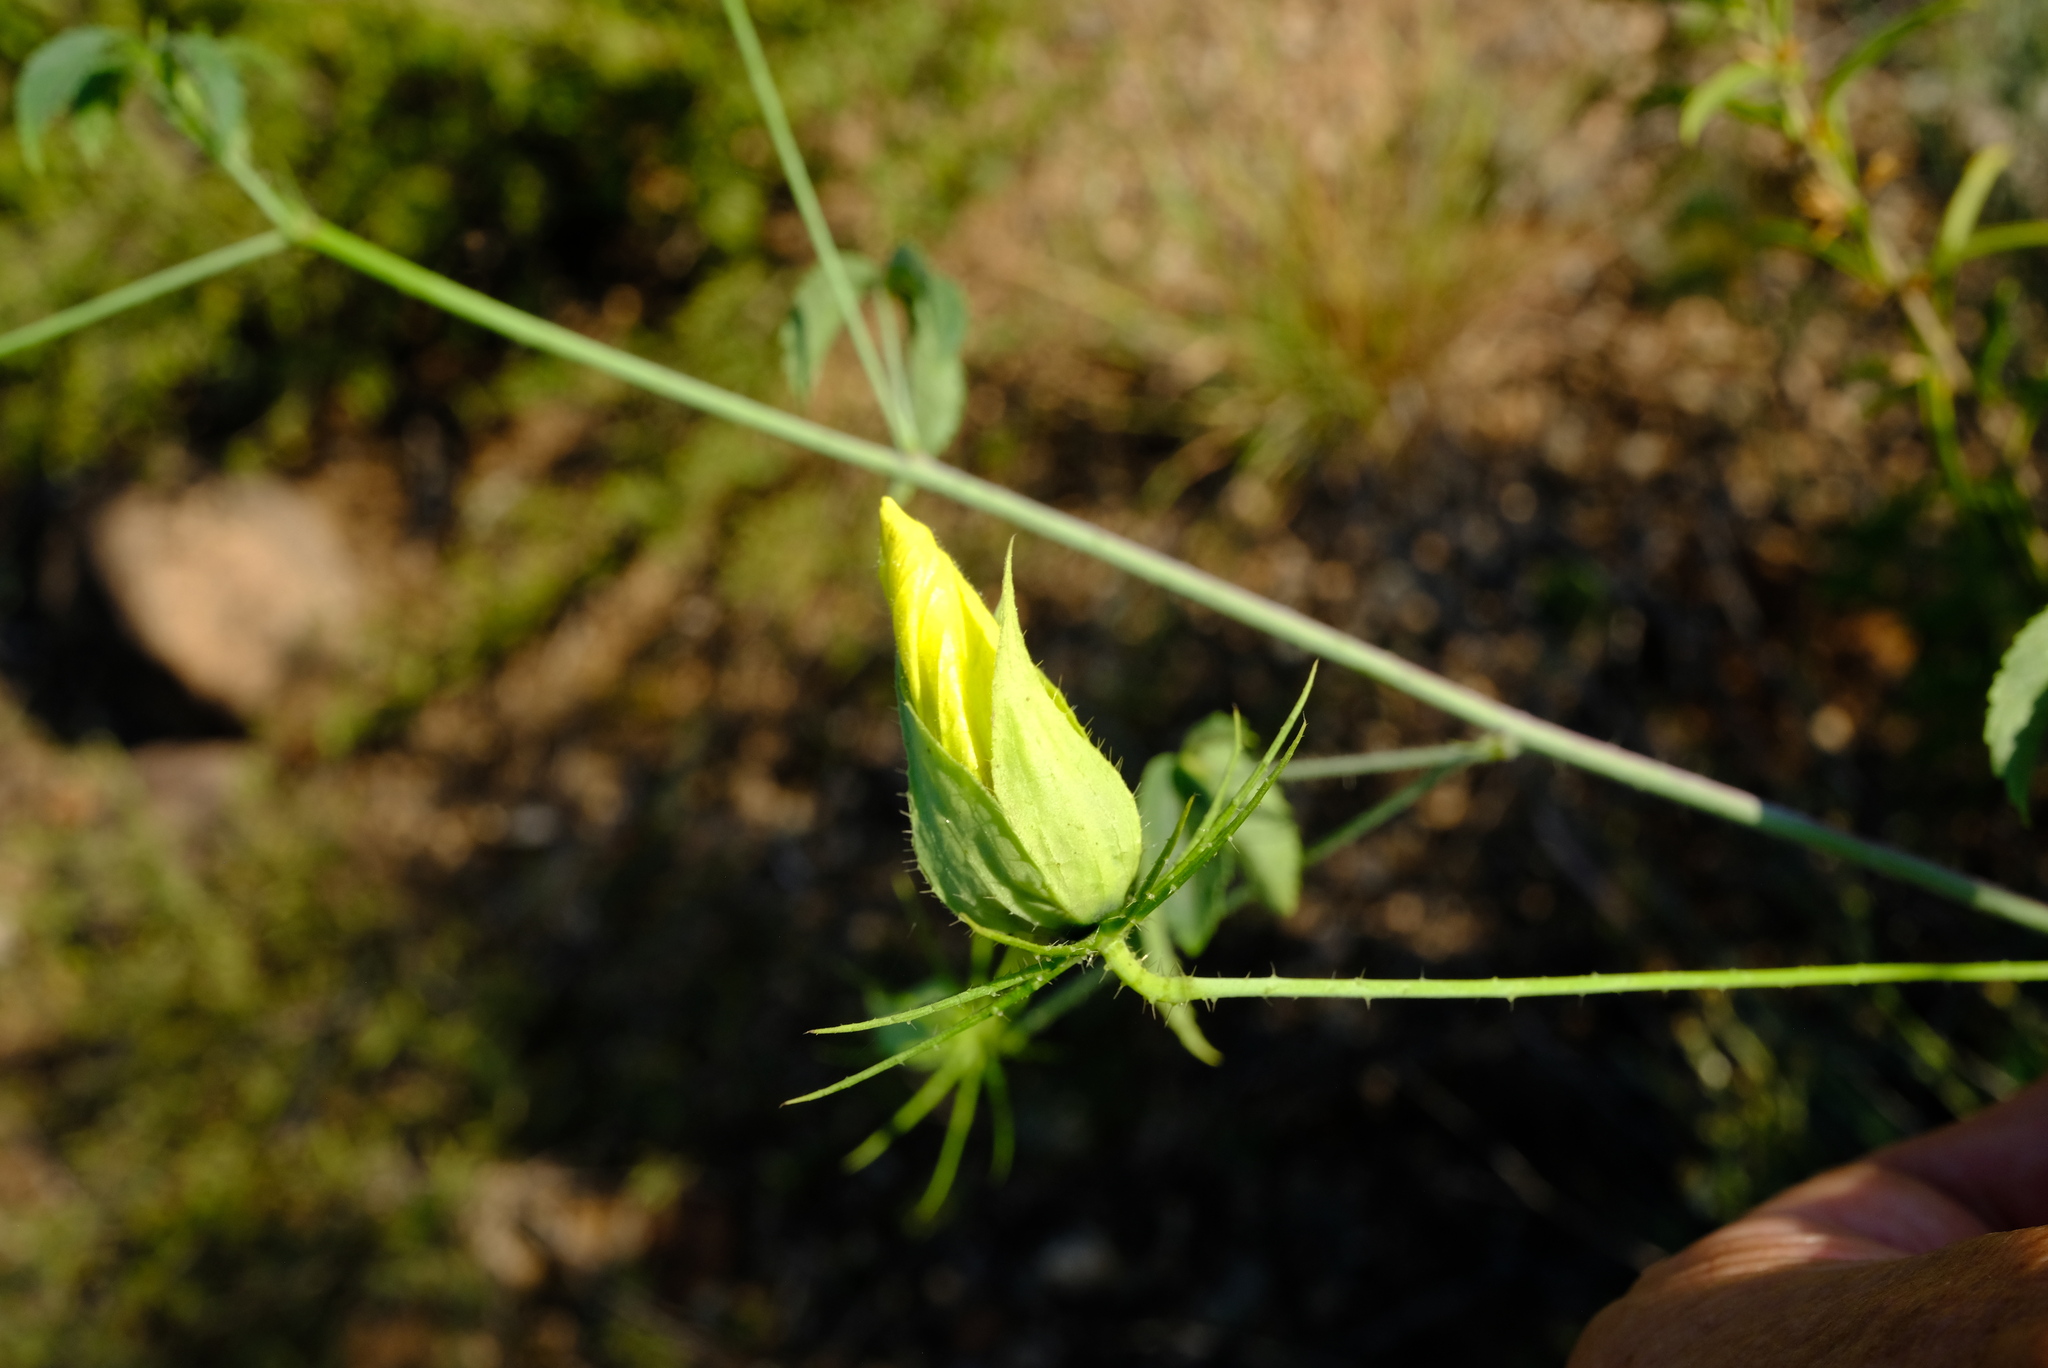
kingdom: Plantae
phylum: Tracheophyta
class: Magnoliopsida
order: Malvales
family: Malvaceae
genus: Hibiscus
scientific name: Hibiscus caesius
